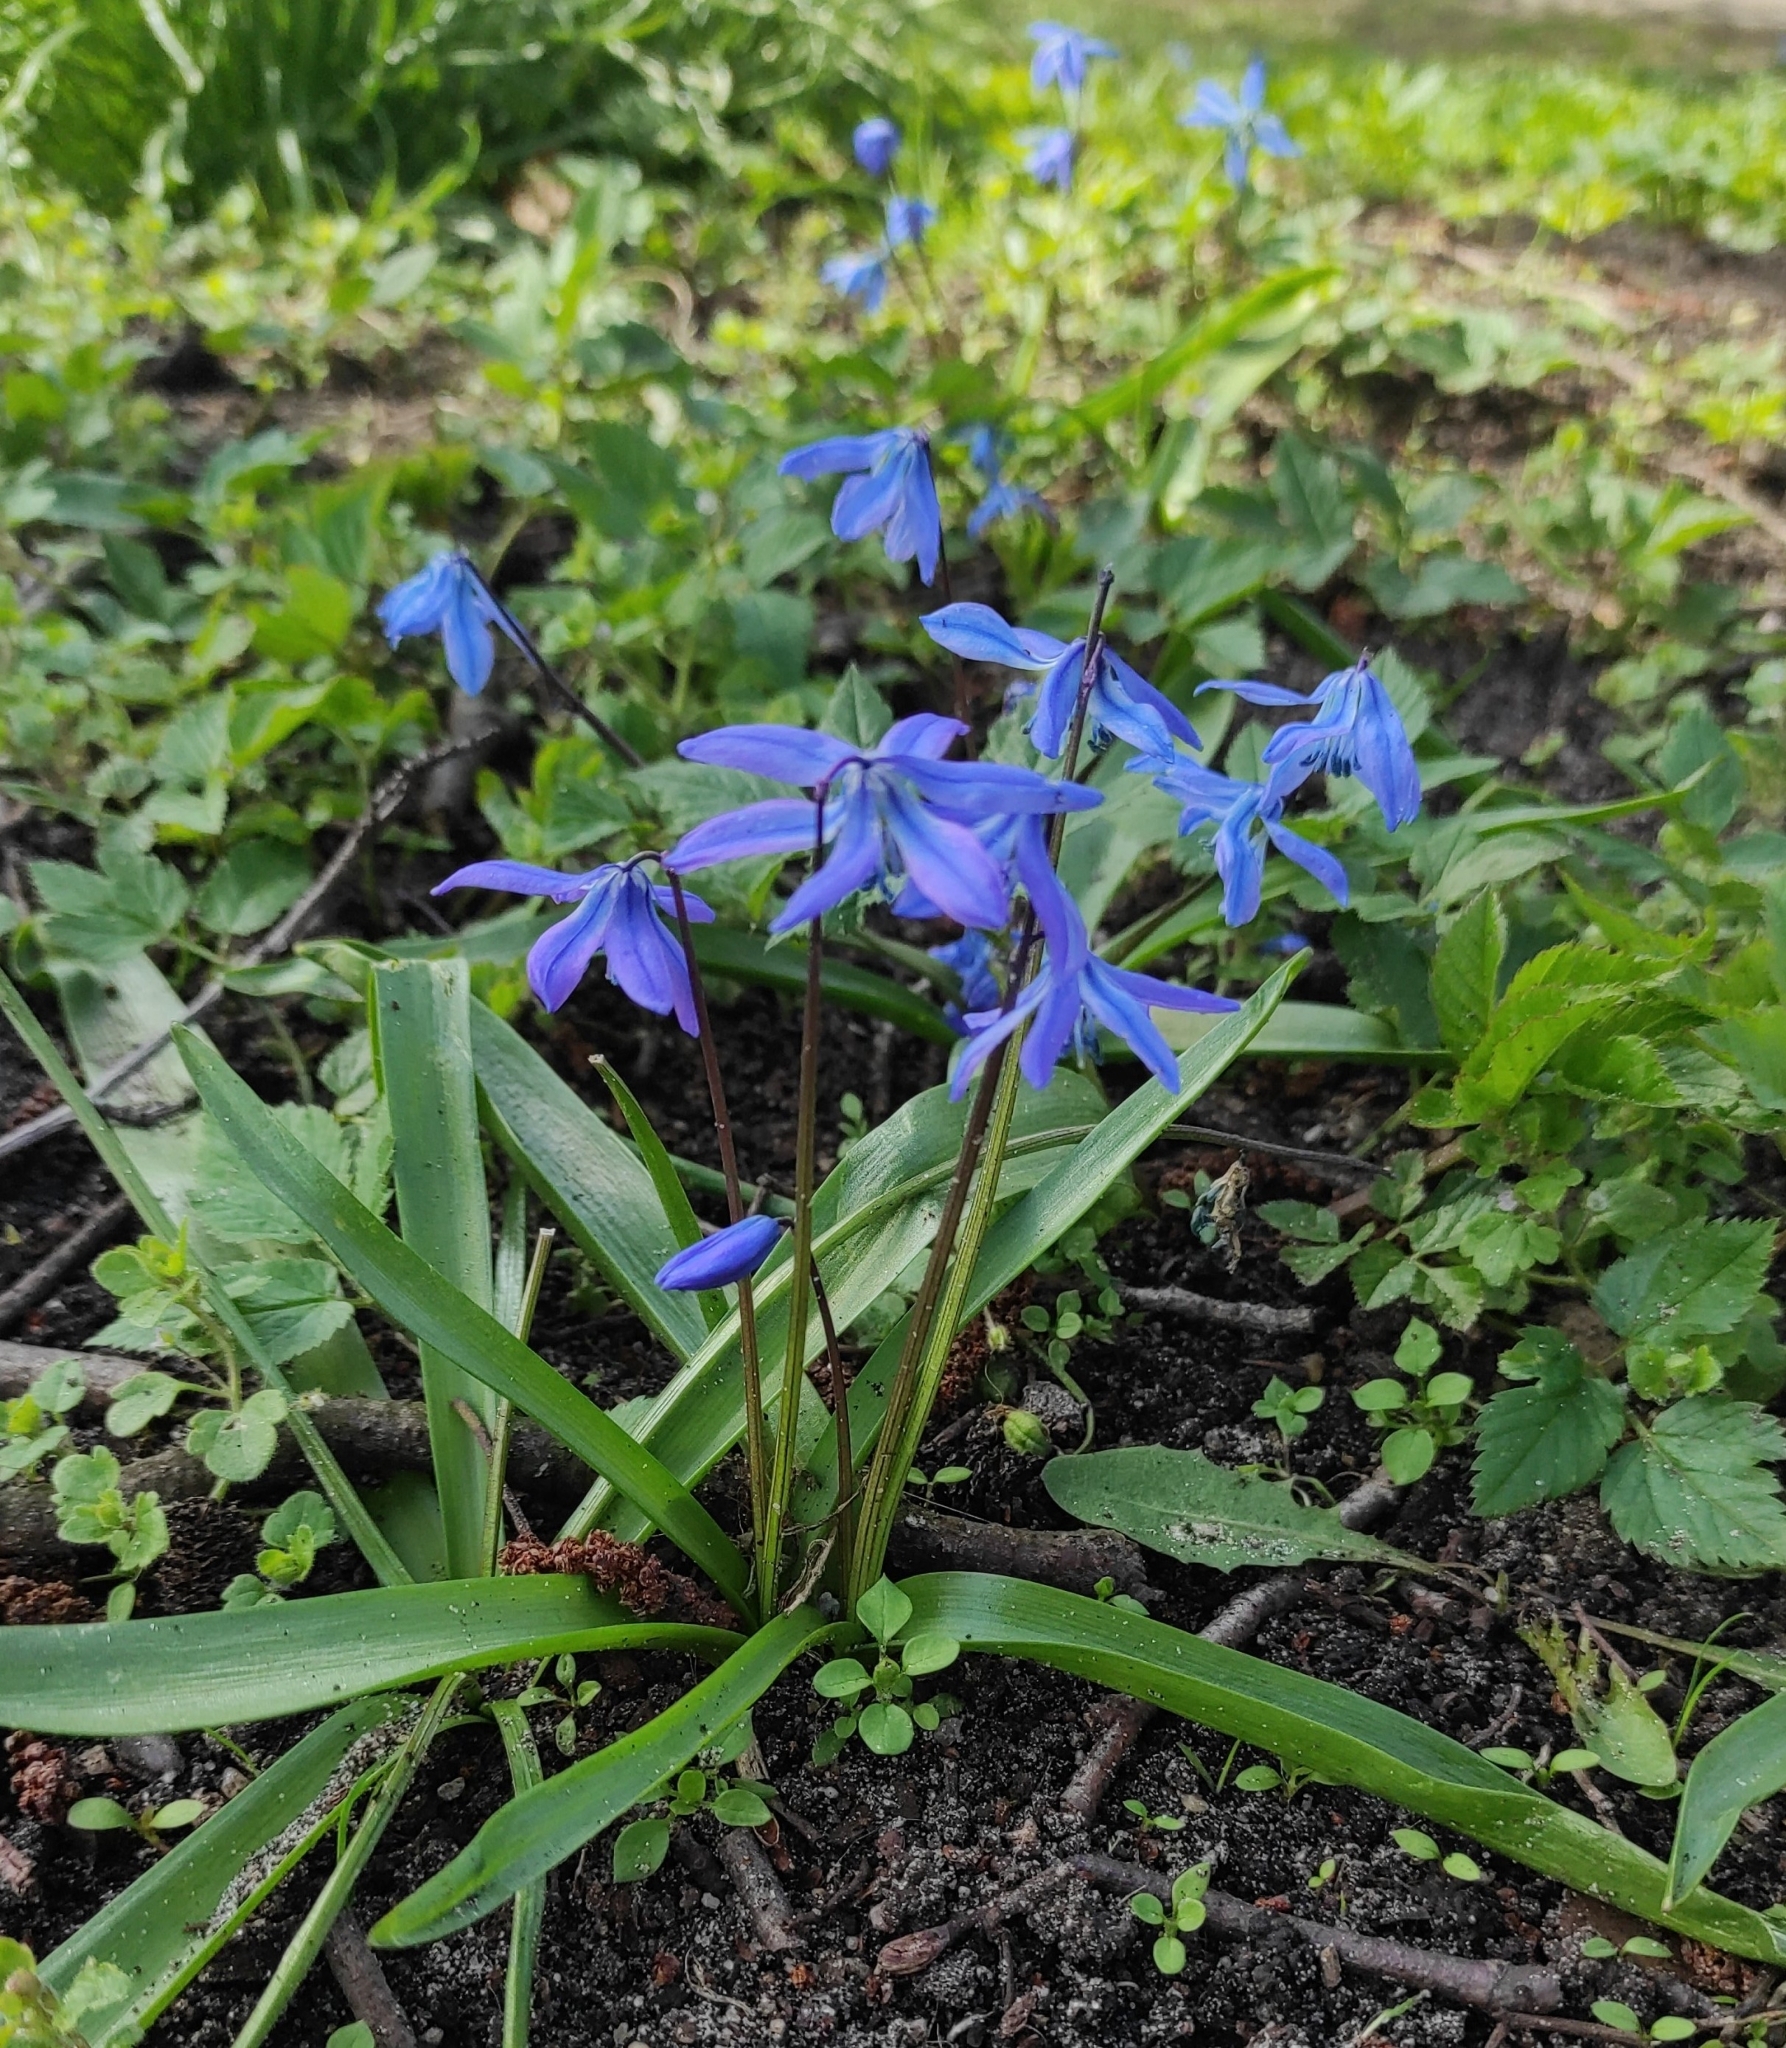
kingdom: Plantae
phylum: Tracheophyta
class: Liliopsida
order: Asparagales
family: Asparagaceae
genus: Scilla
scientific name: Scilla siberica
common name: Siberian squill
